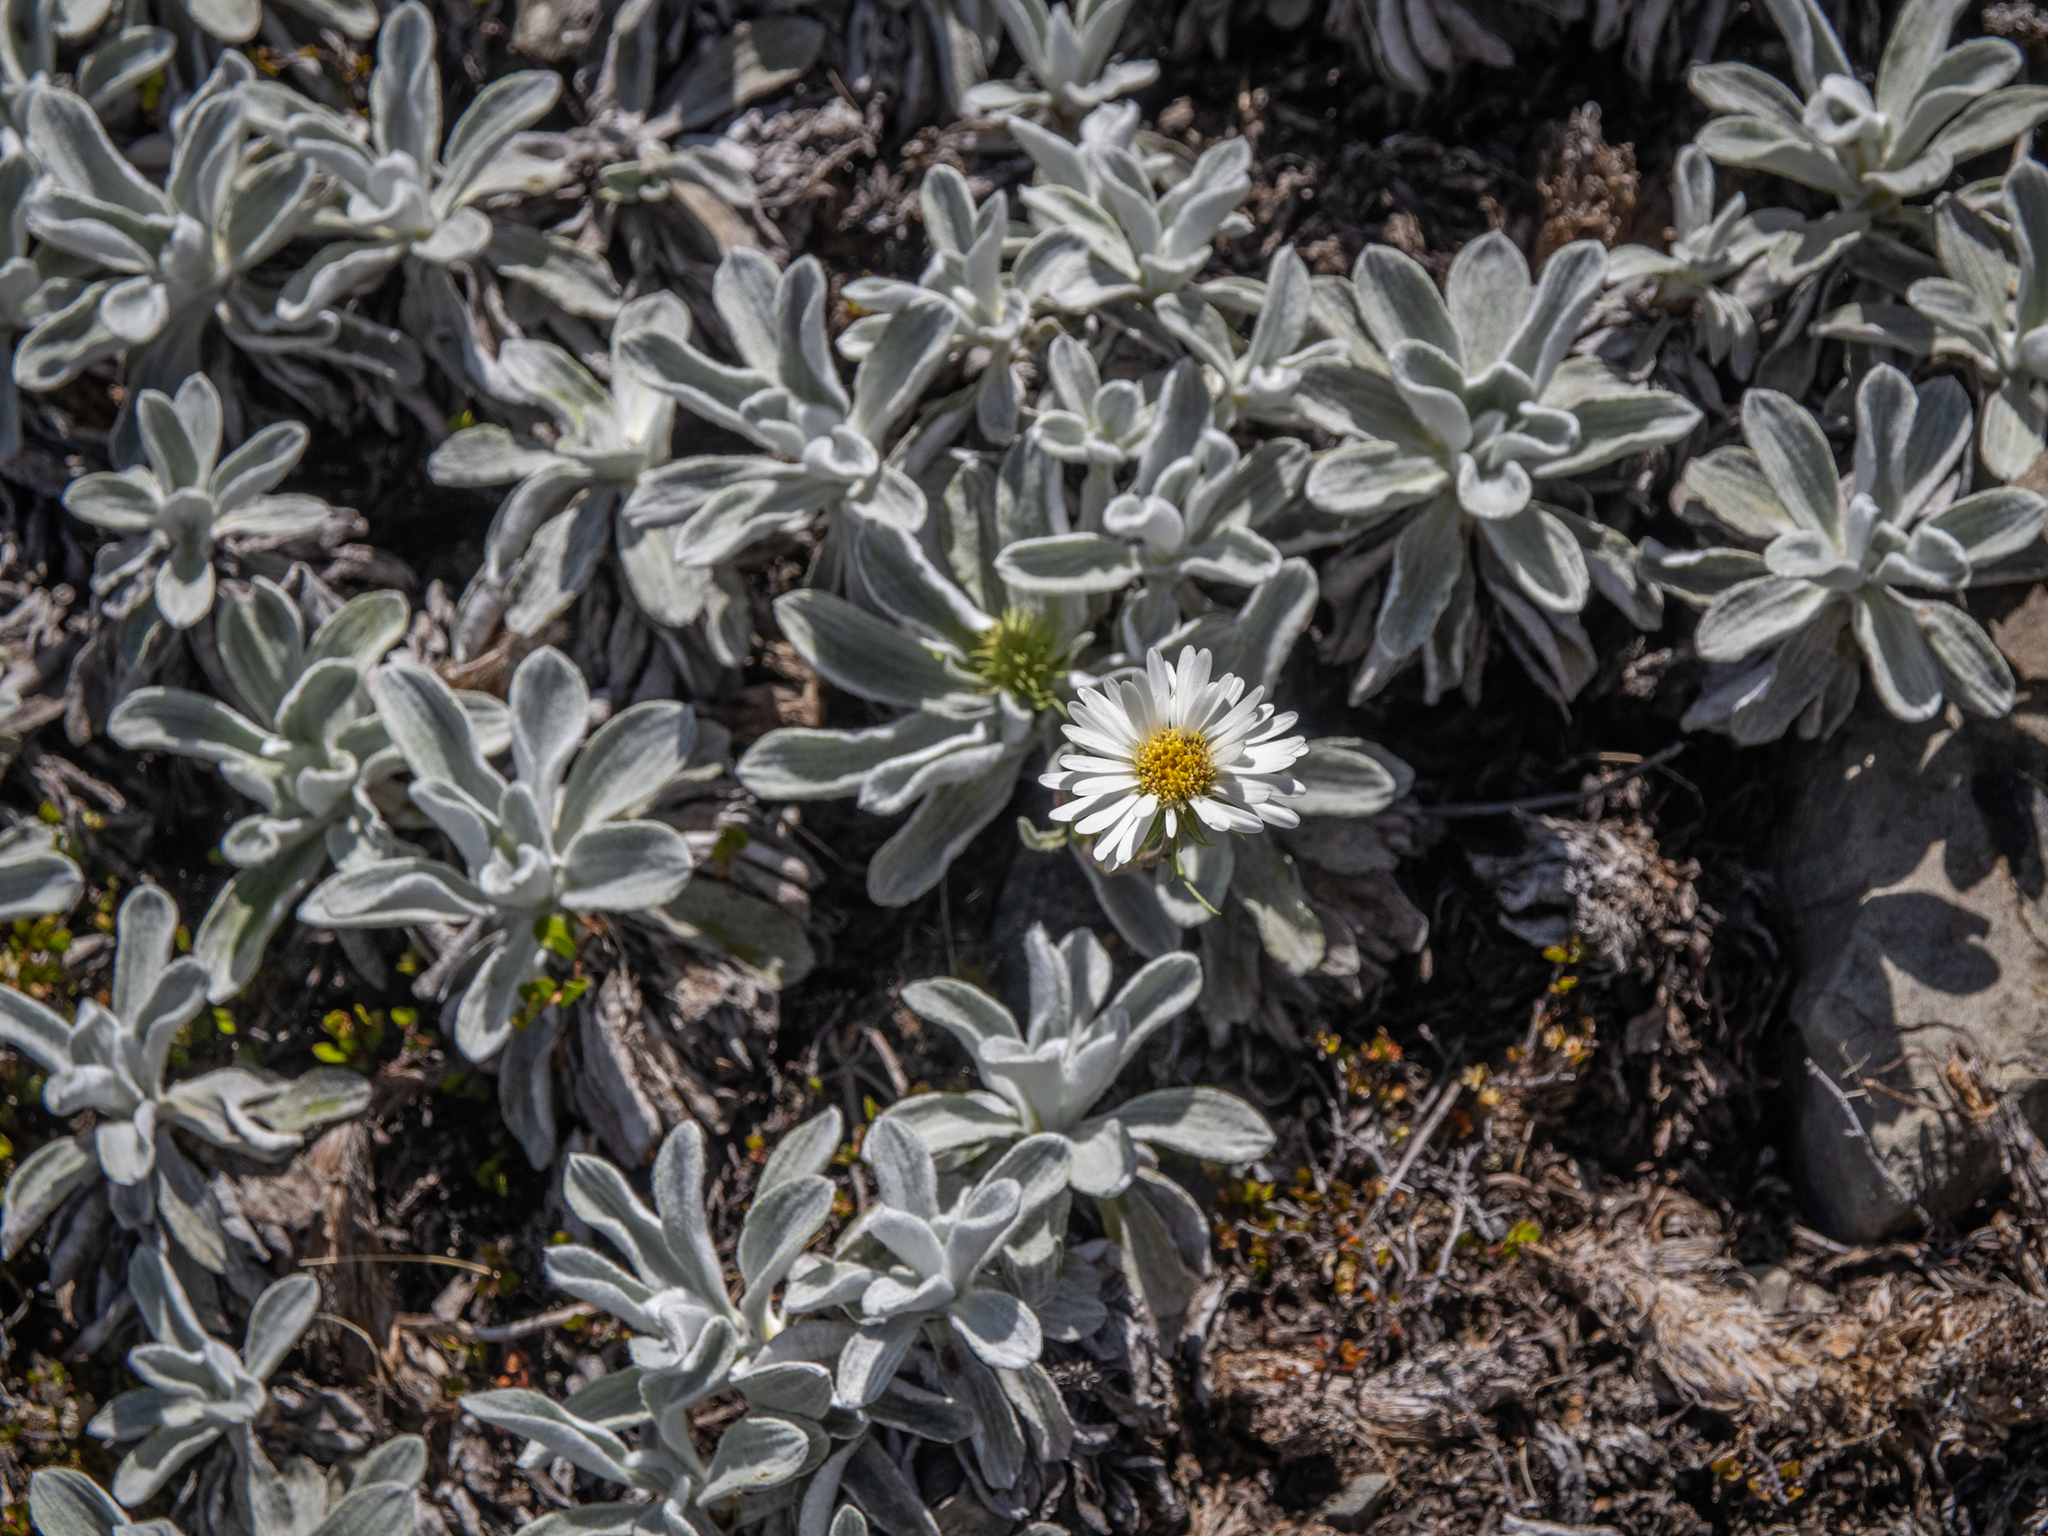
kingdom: Plantae
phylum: Tracheophyta
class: Magnoliopsida
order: Asterales
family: Asteraceae
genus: Celmisia
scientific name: Celmisia allanii
